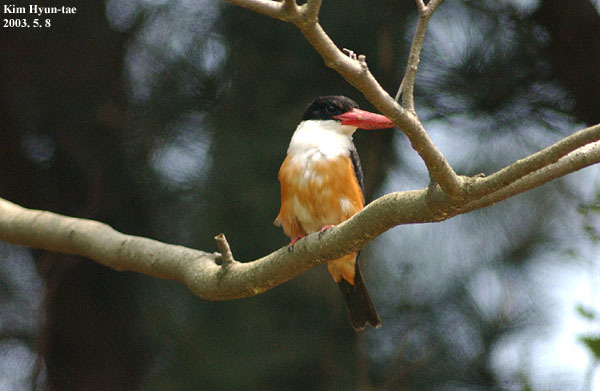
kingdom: Animalia
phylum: Chordata
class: Aves
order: Coraciiformes
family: Alcedinidae
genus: Halcyon
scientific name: Halcyon pileata
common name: Black-capped kingfisher
